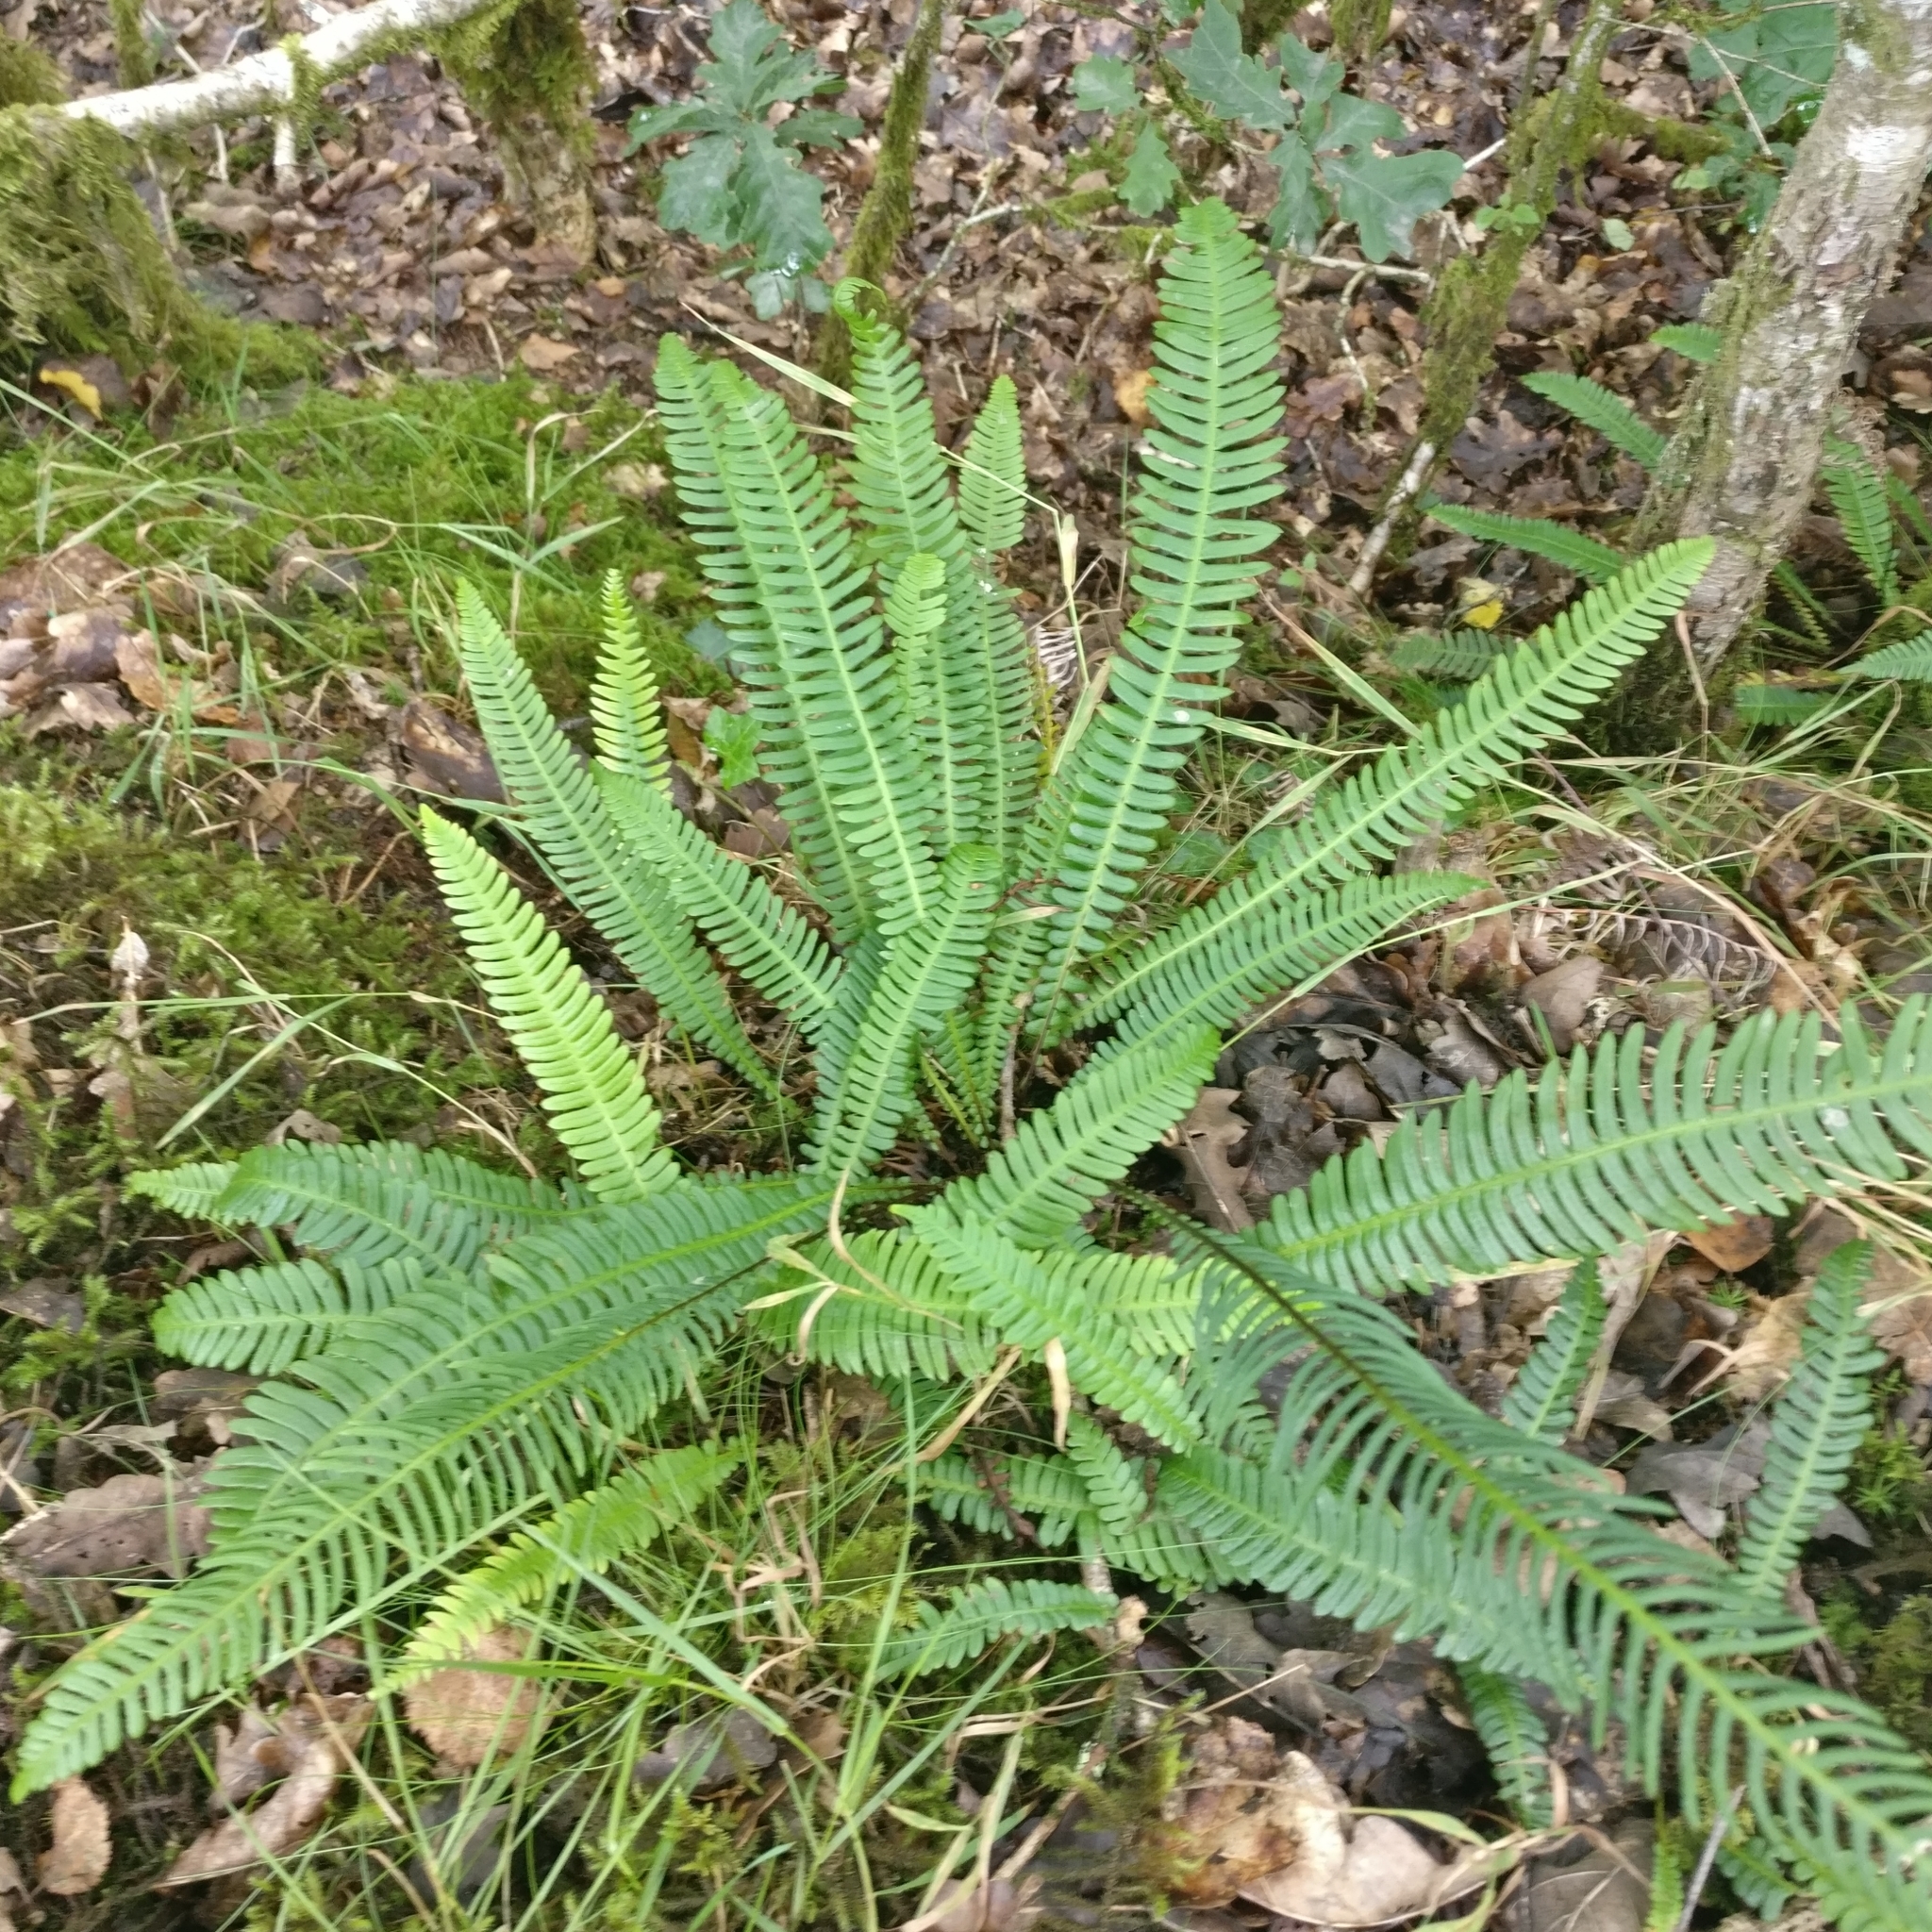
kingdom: Plantae
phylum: Tracheophyta
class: Polypodiopsida
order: Polypodiales
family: Blechnaceae
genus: Struthiopteris
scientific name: Struthiopteris spicant
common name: Deer fern
